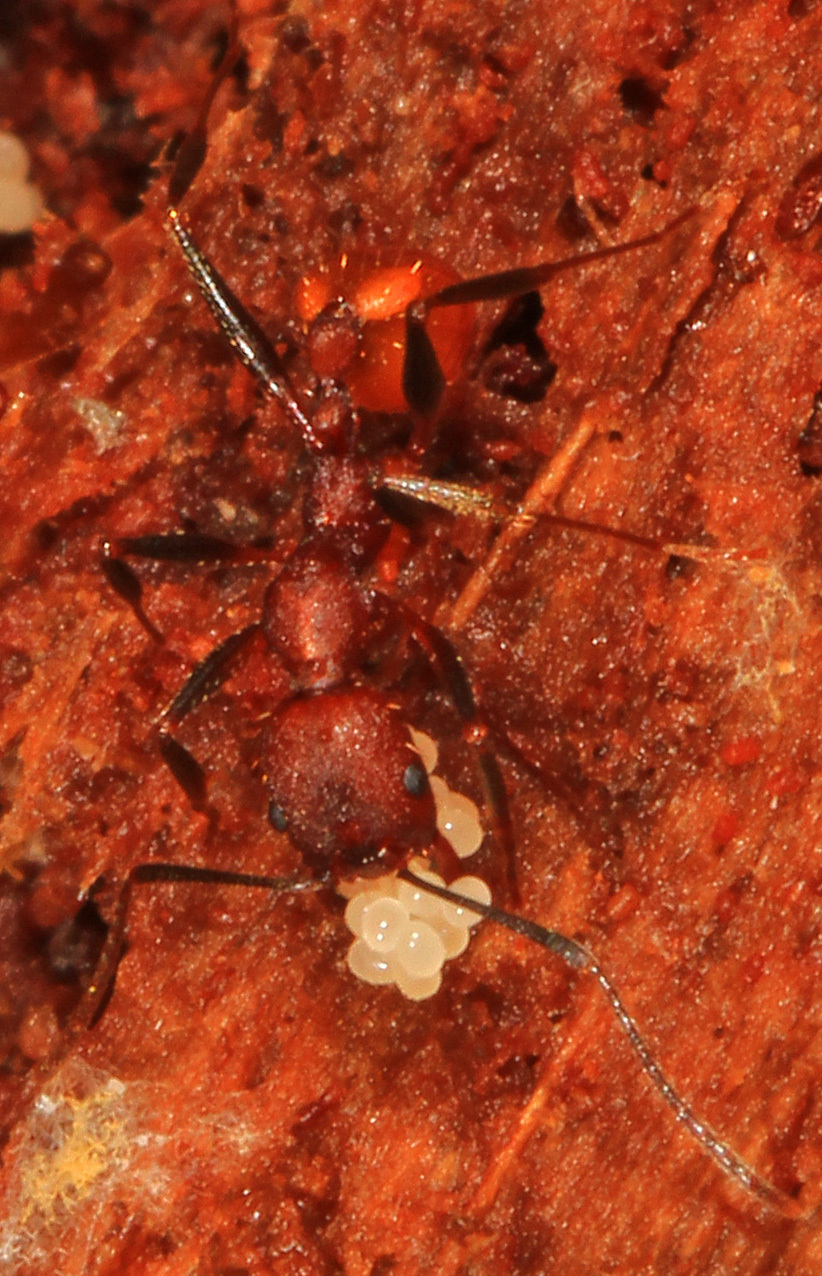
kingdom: Animalia
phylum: Arthropoda
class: Insecta
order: Hymenoptera
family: Formicidae
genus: Aphaenogaster
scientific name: Aphaenogaster lamellidens
